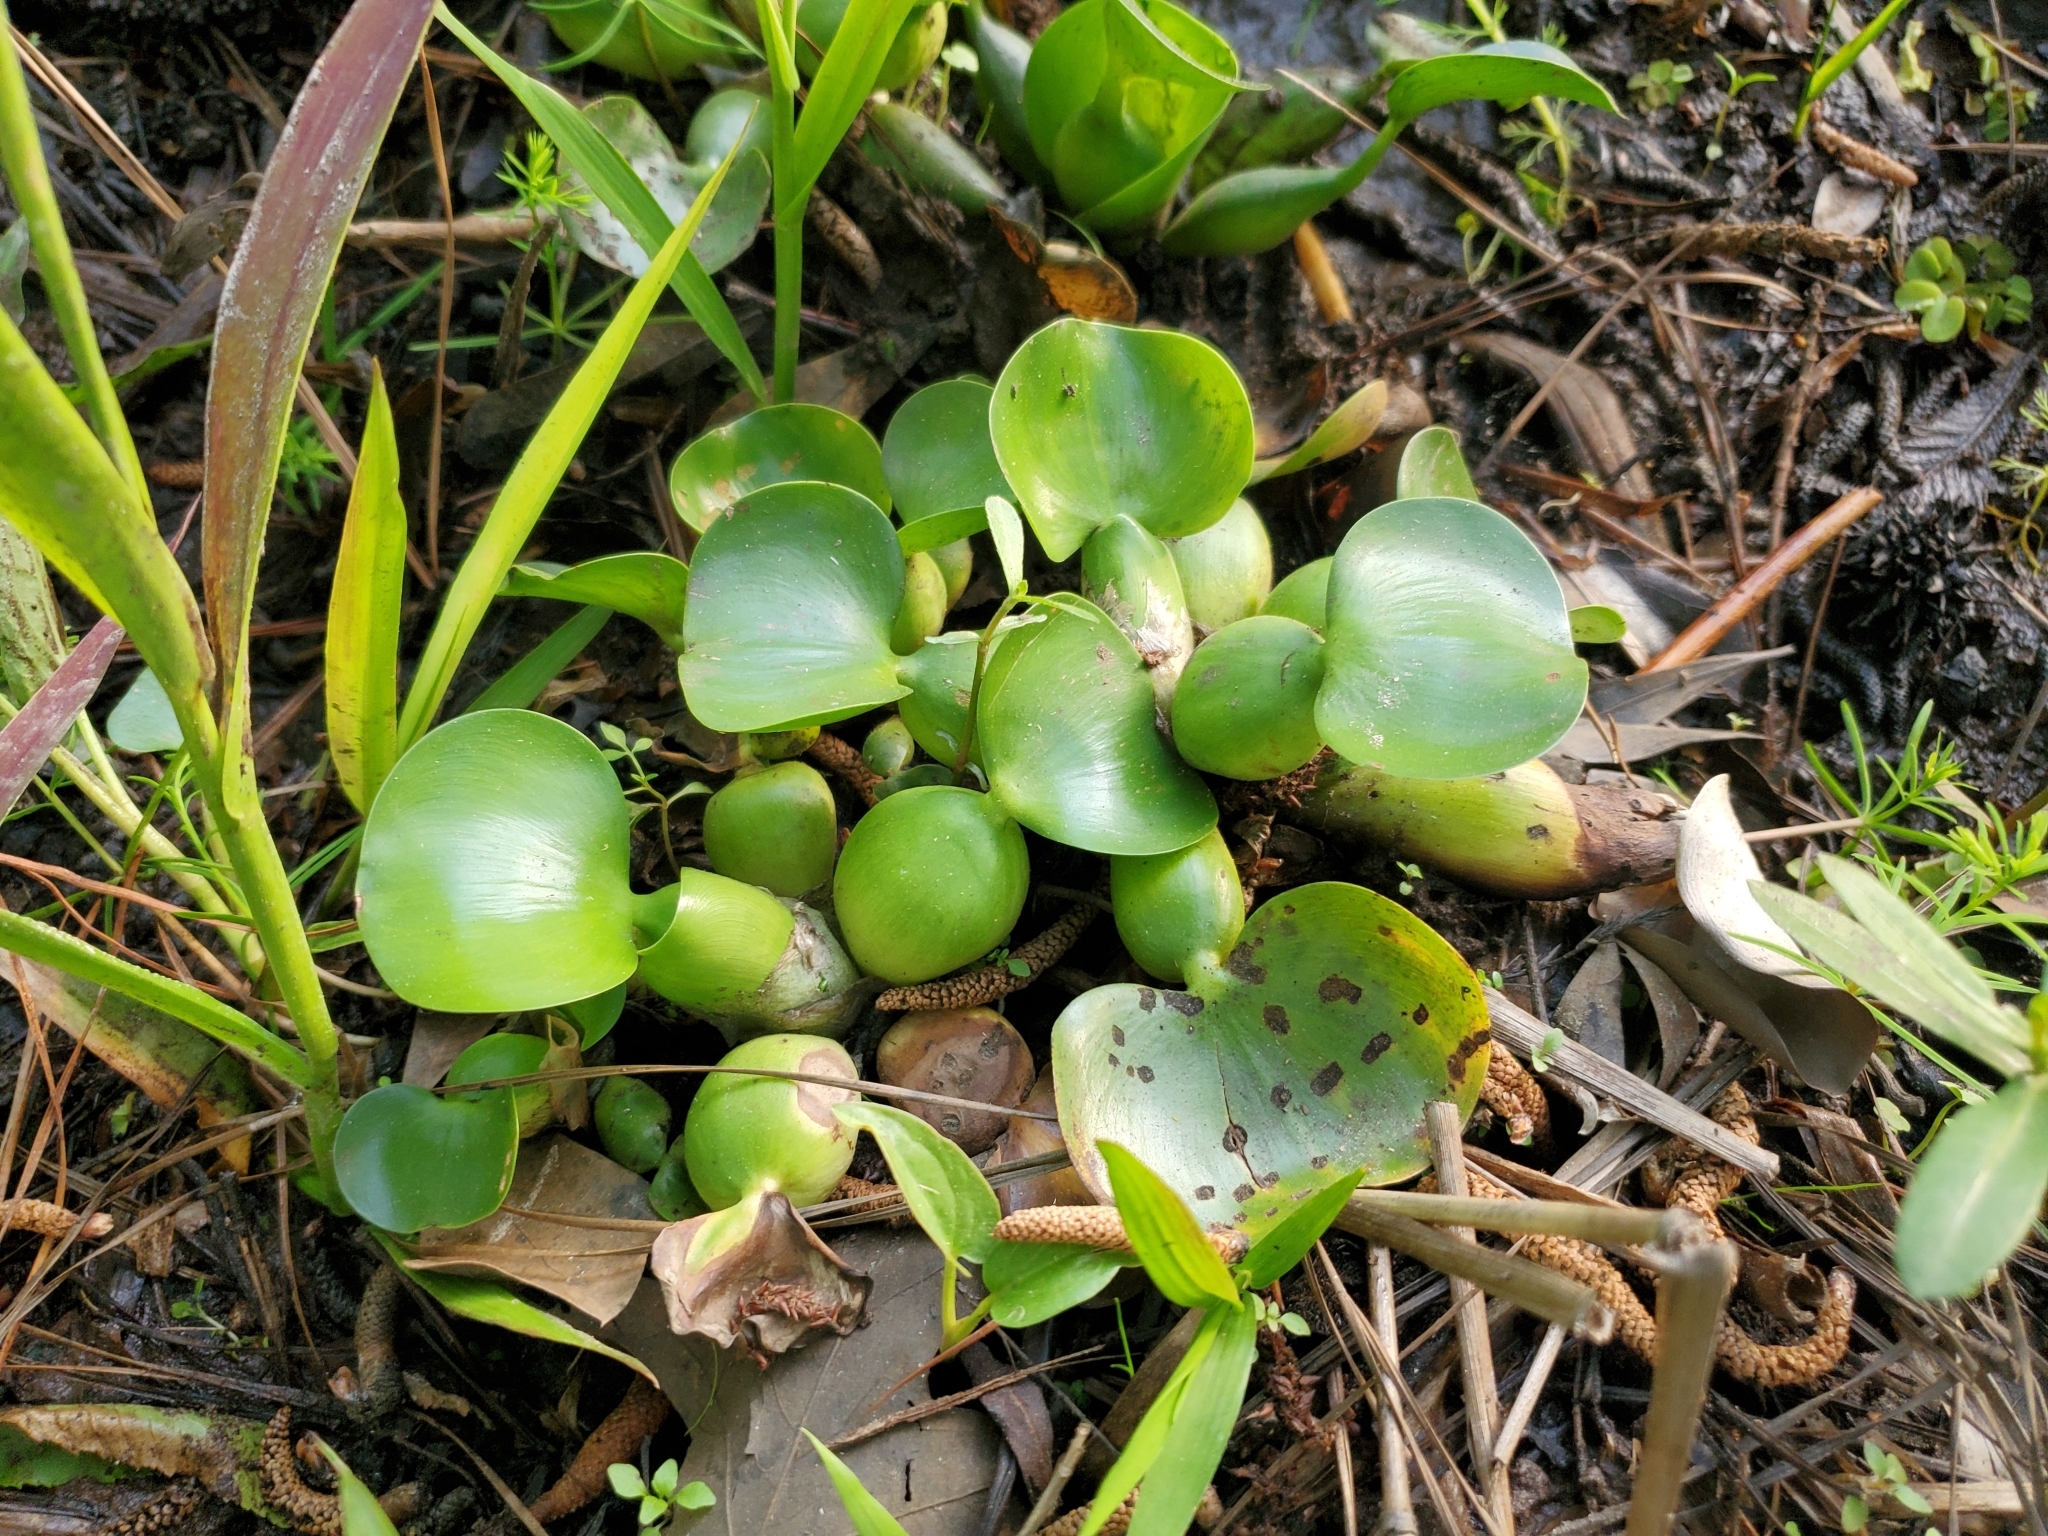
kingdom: Plantae
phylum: Tracheophyta
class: Liliopsida
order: Commelinales
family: Pontederiaceae
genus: Pontederia
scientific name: Pontederia crassipes
